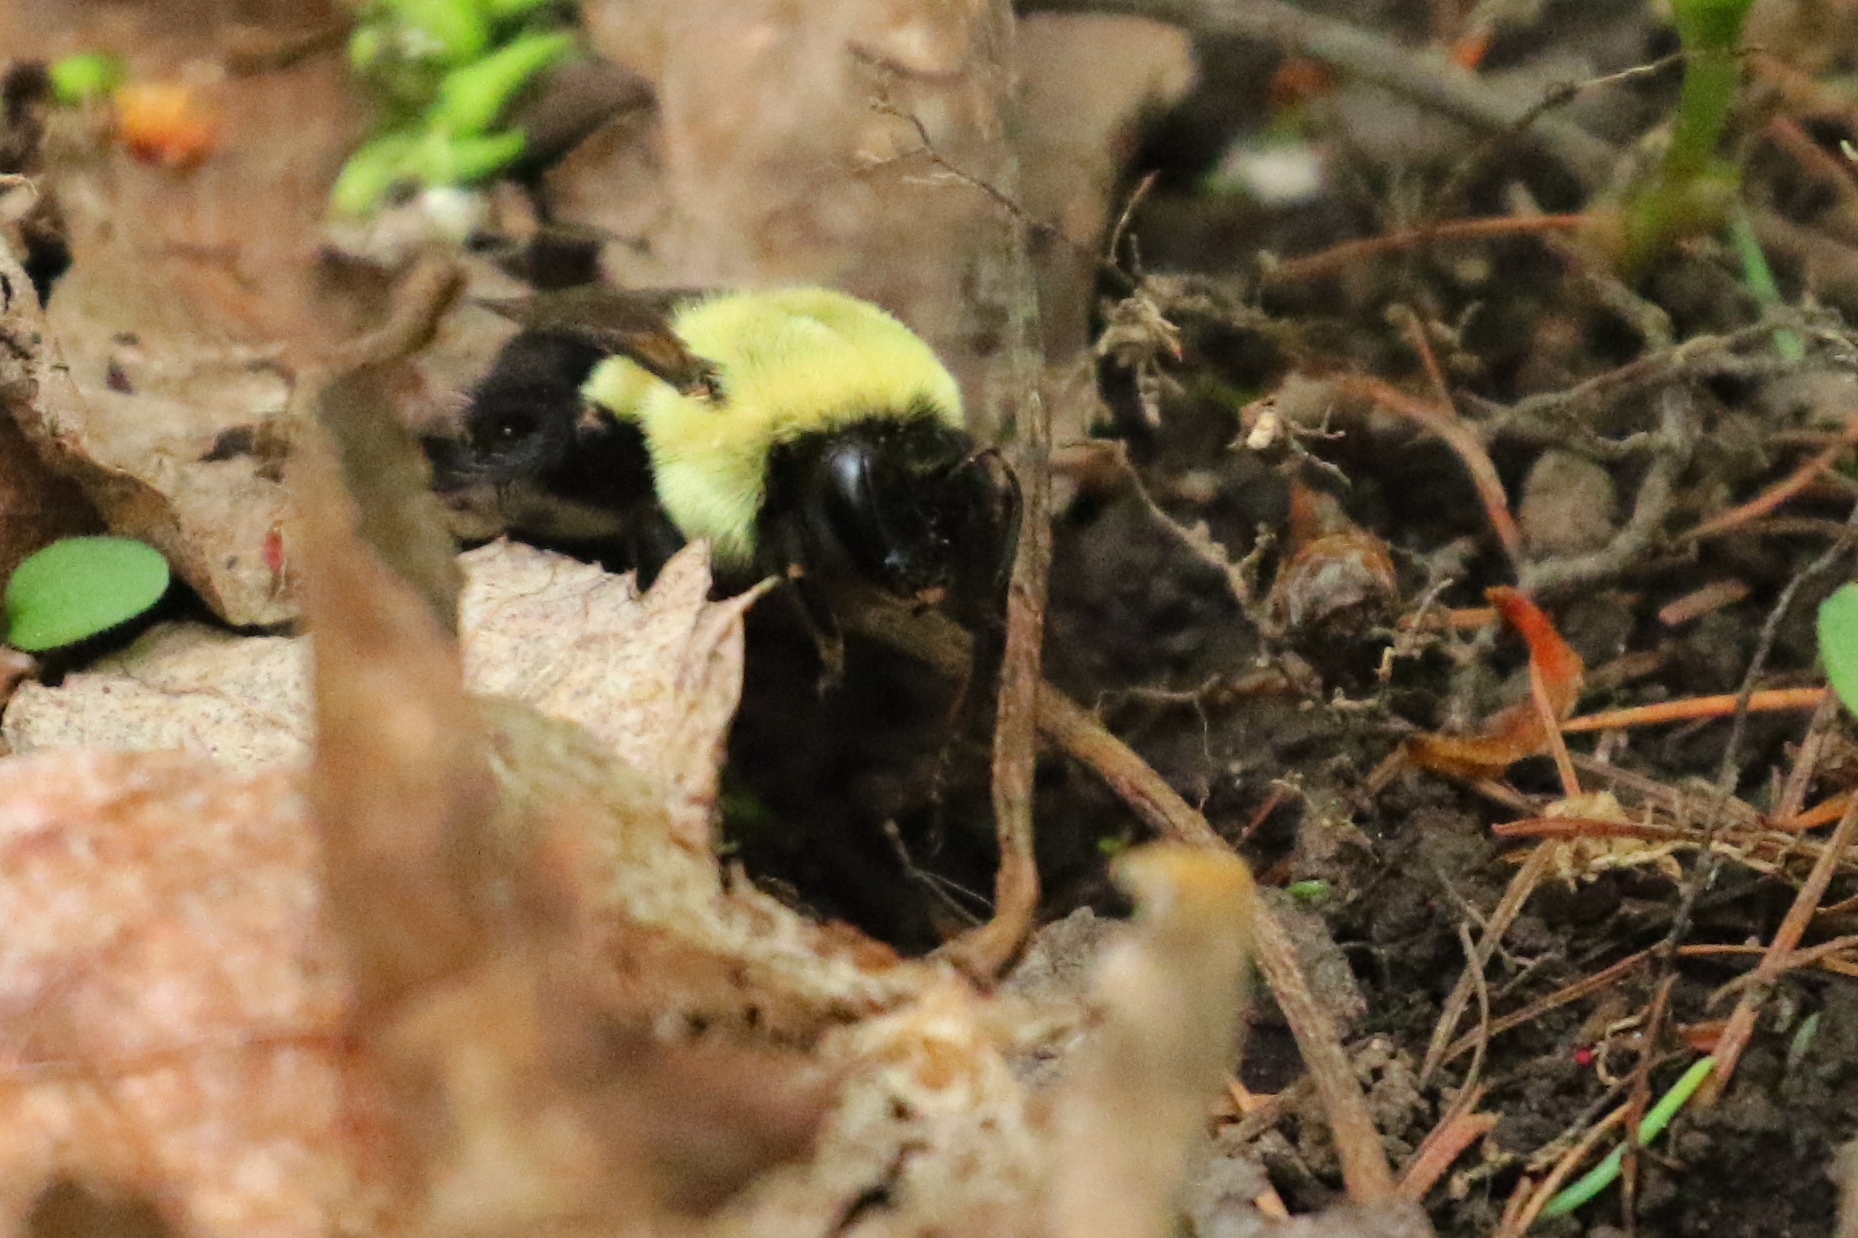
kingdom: Animalia
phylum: Arthropoda
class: Insecta
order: Hymenoptera
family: Apidae
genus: Bombus
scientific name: Bombus impatiens
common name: Common eastern bumble bee
